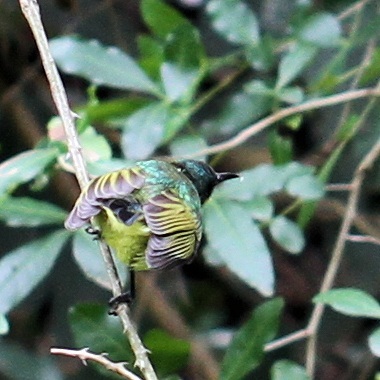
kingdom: Animalia
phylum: Chordata
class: Aves
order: Passeriformes
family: Nectariniidae
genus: Hedydipna
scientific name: Hedydipna collaris
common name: Collared sunbird
